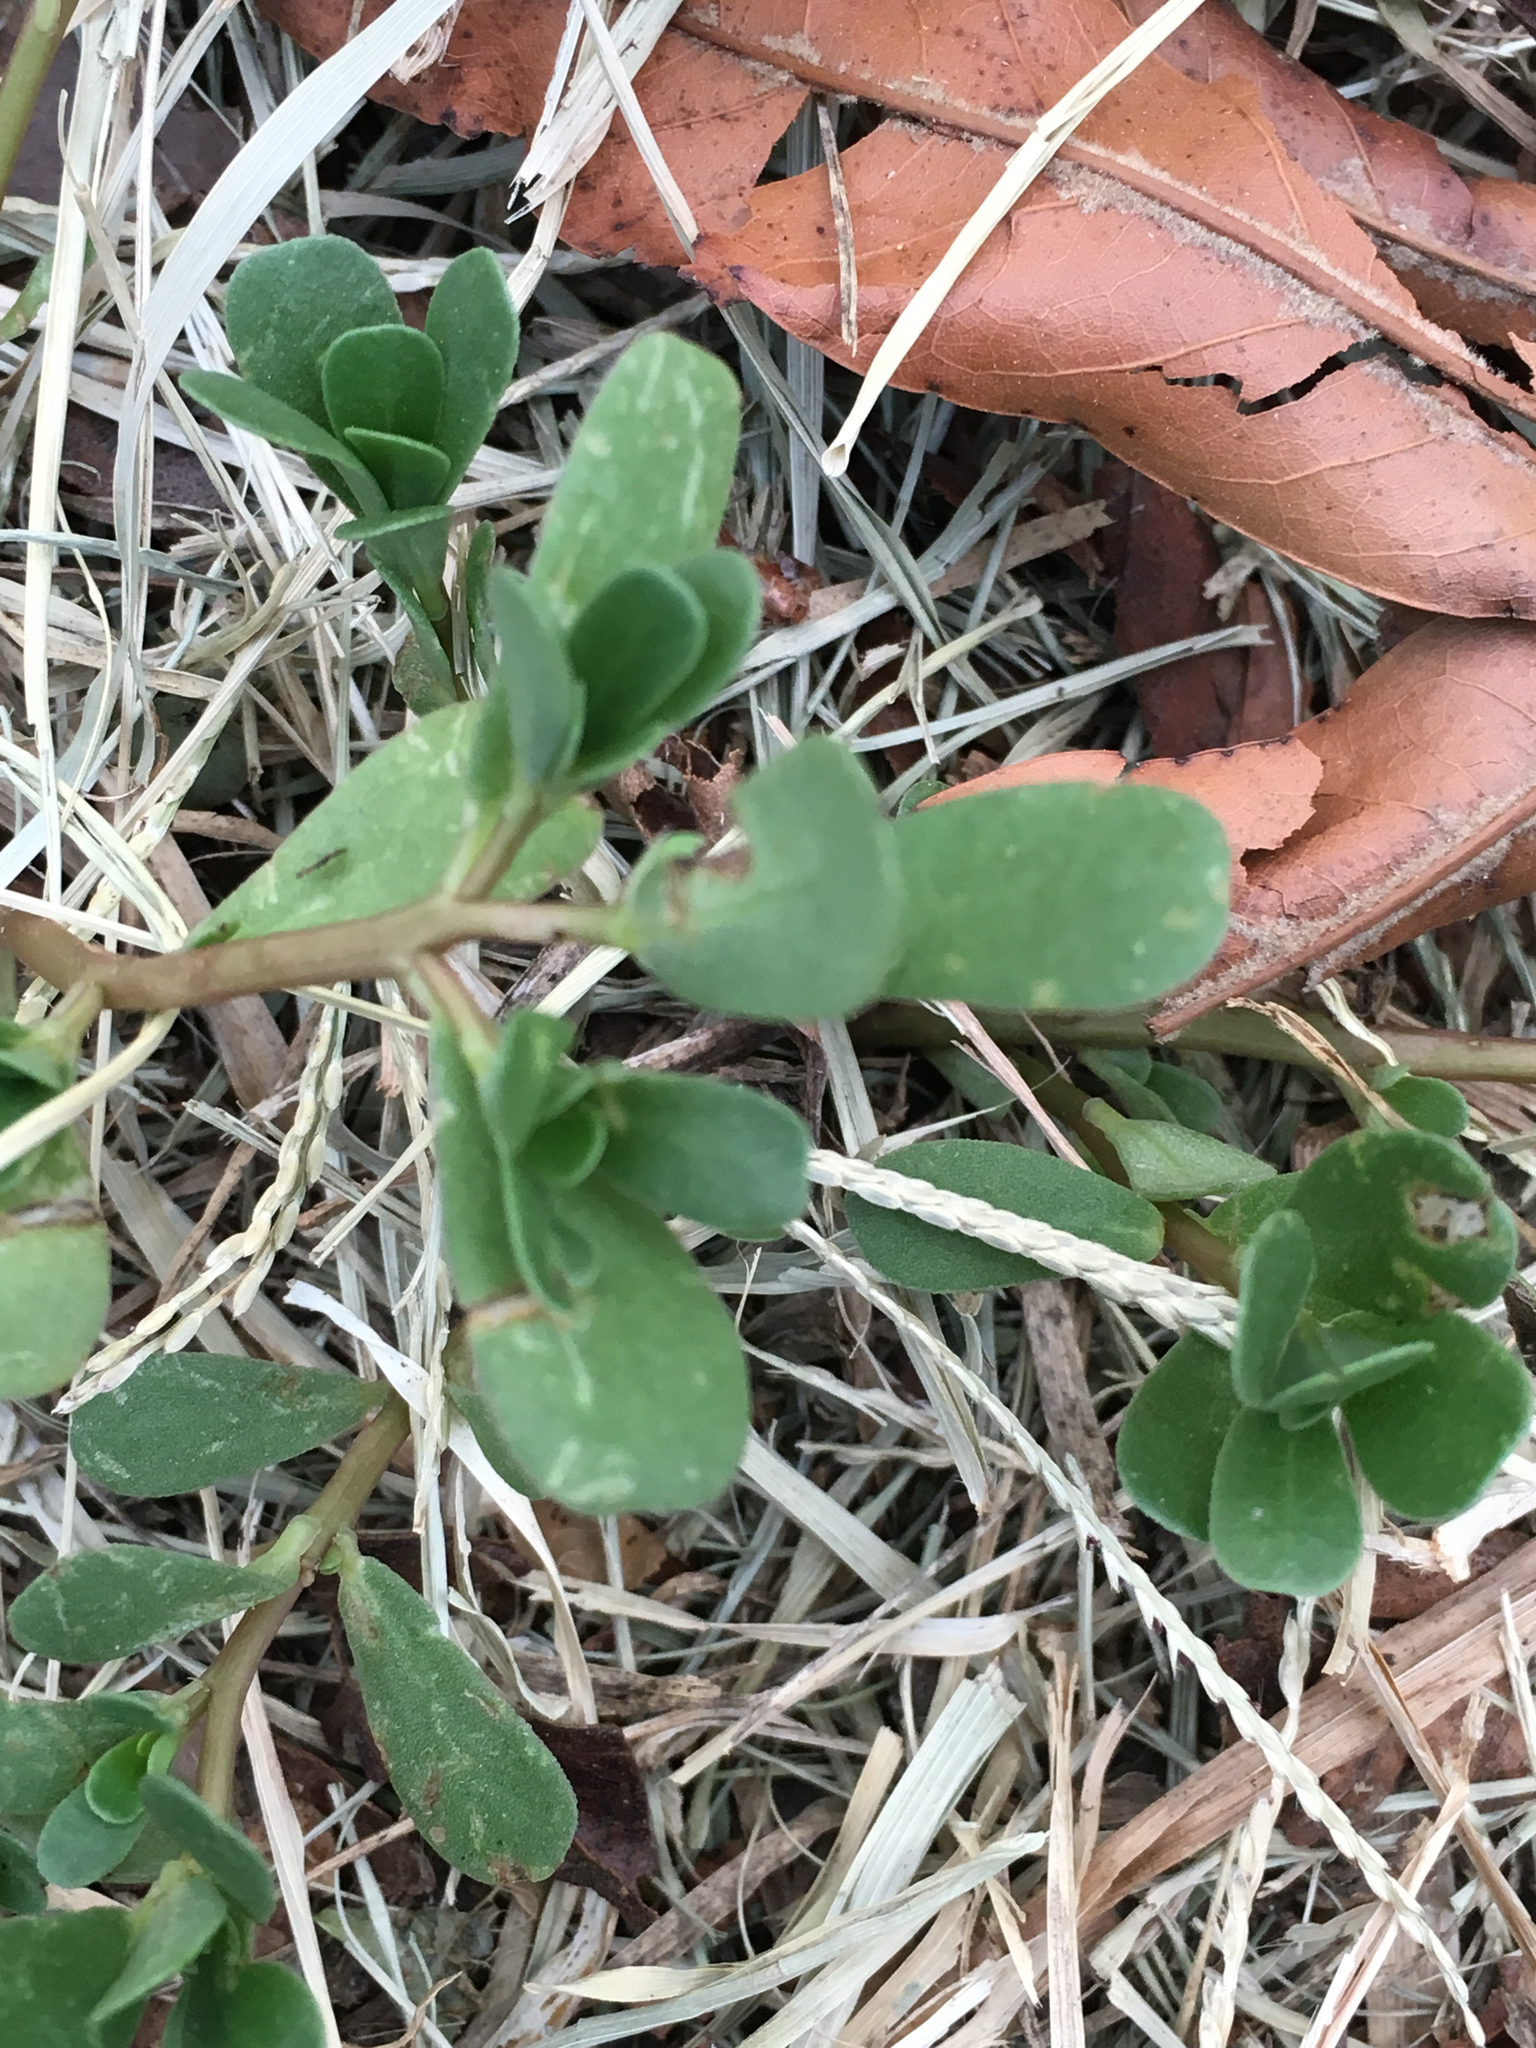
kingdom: Plantae
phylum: Tracheophyta
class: Magnoliopsida
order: Caryophyllales
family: Portulacaceae
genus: Portulaca
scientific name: Portulaca oleracea
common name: Common purslane
